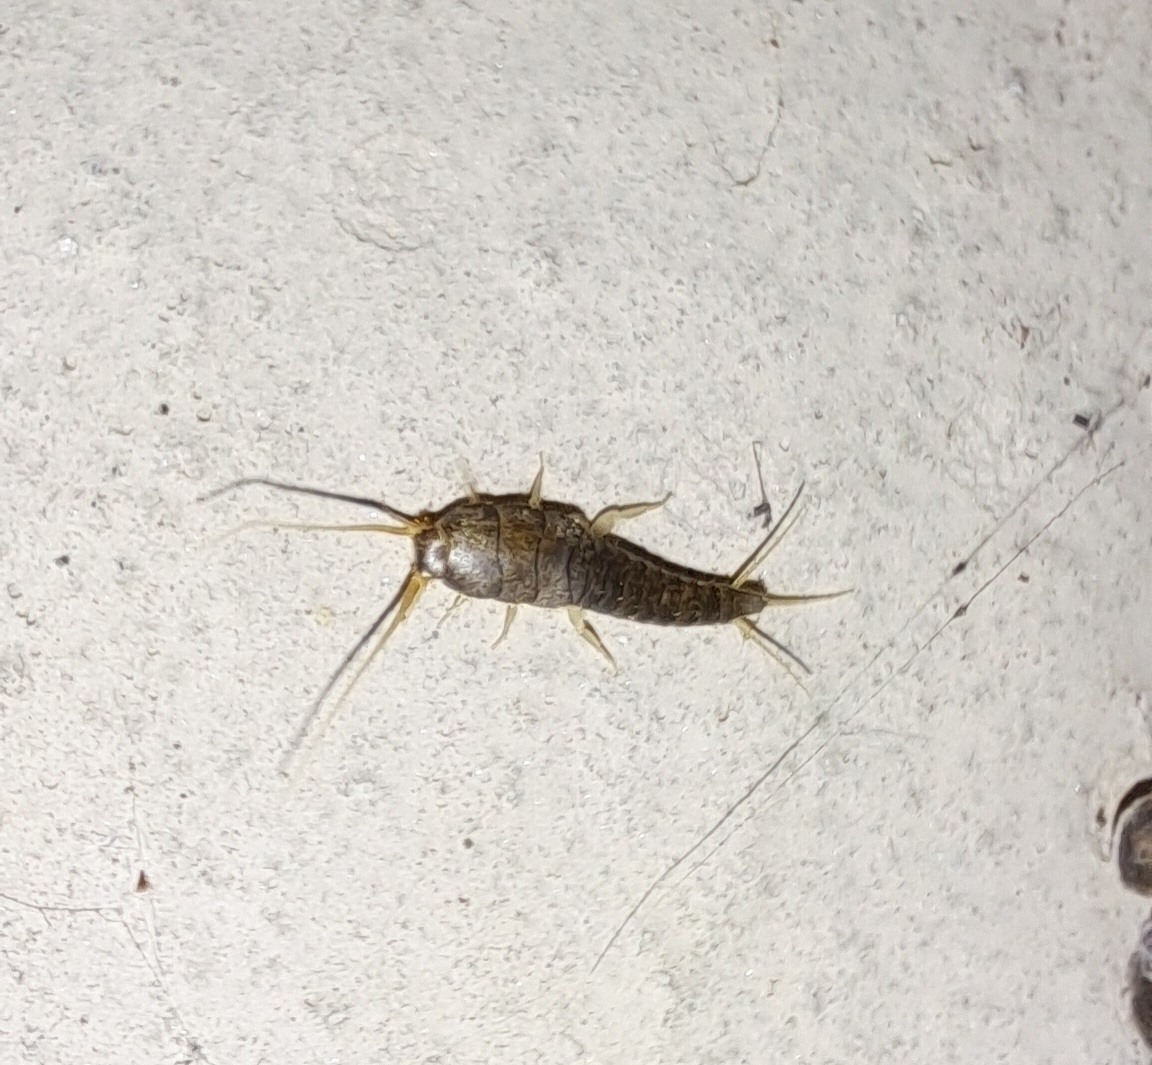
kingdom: Animalia
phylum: Arthropoda
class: Insecta
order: Zygentoma
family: Lepismatidae
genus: Lepisma
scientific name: Lepisma saccharinum
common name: Silverfish
